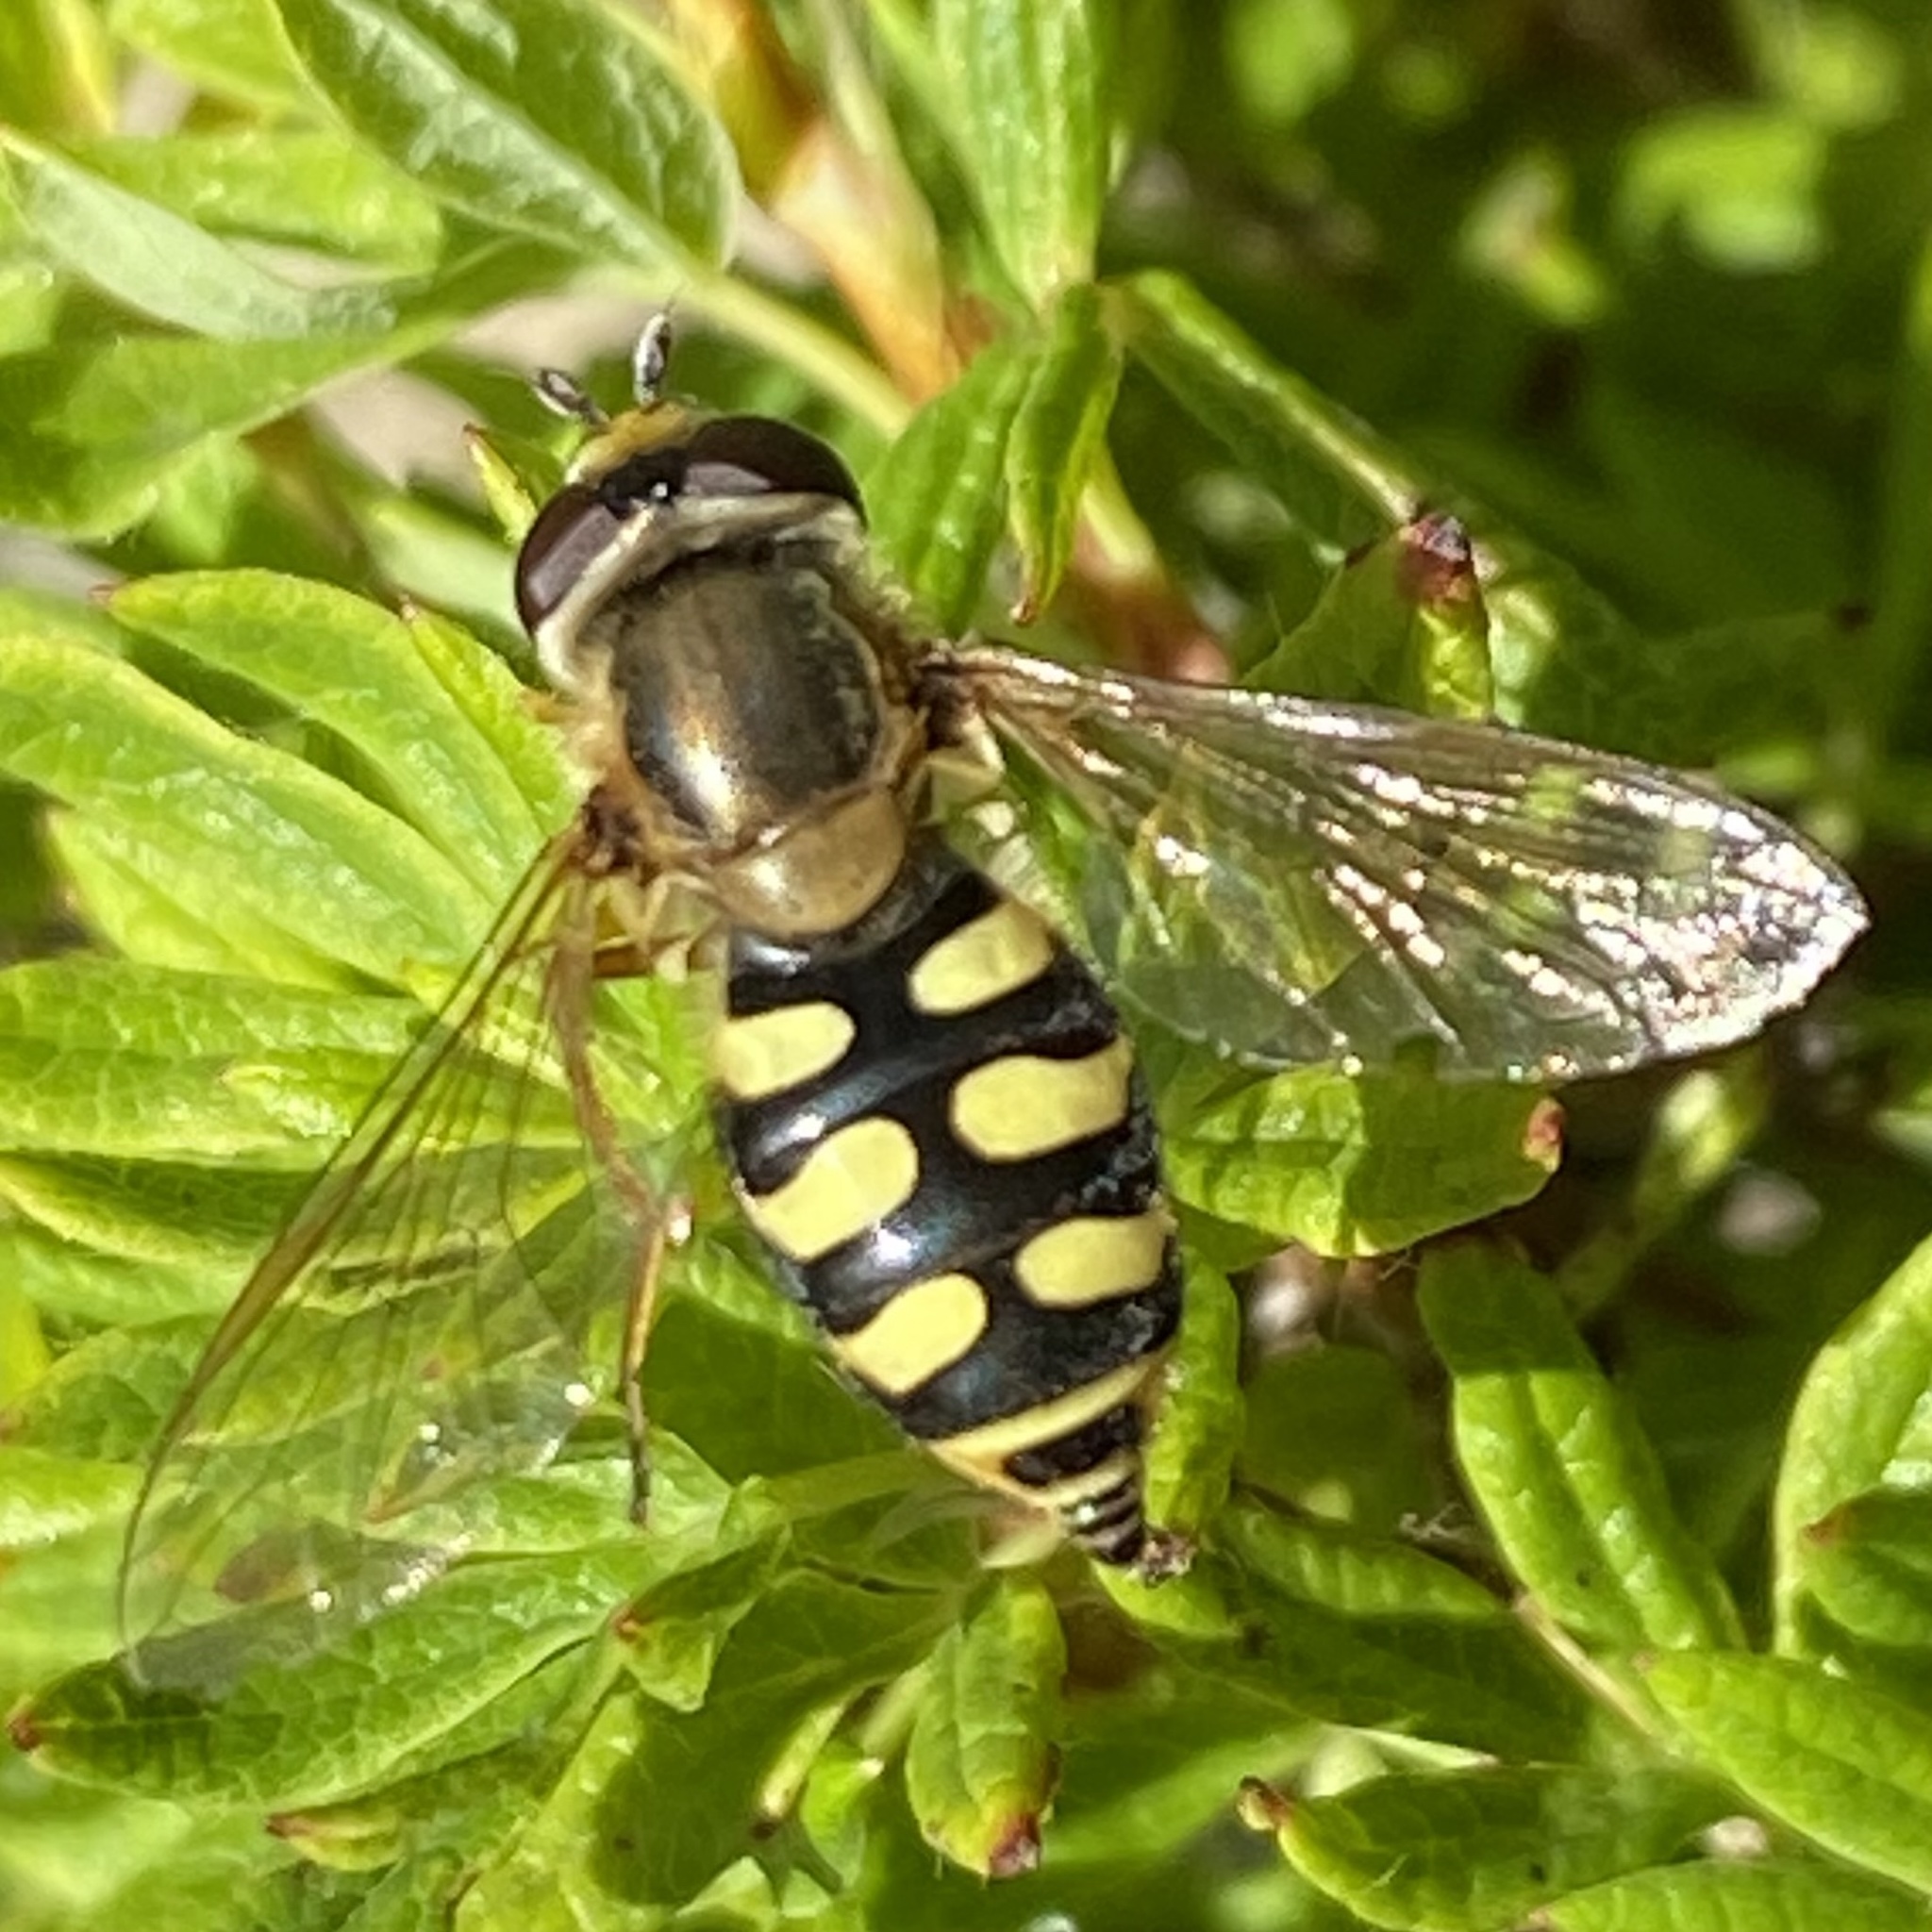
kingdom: Animalia
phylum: Arthropoda
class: Insecta
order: Diptera
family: Syrphidae
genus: Eupeodes
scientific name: Eupeodes corollae
